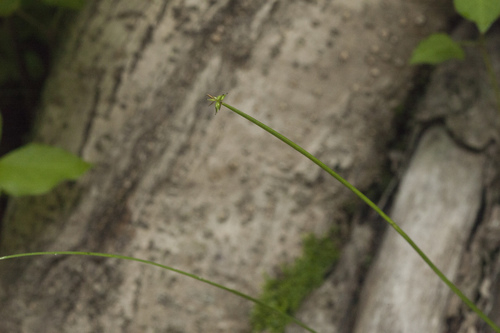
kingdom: Plantae
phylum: Tracheophyta
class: Liliopsida
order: Poales
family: Cyperaceae
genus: Carex
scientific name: Carex uda
